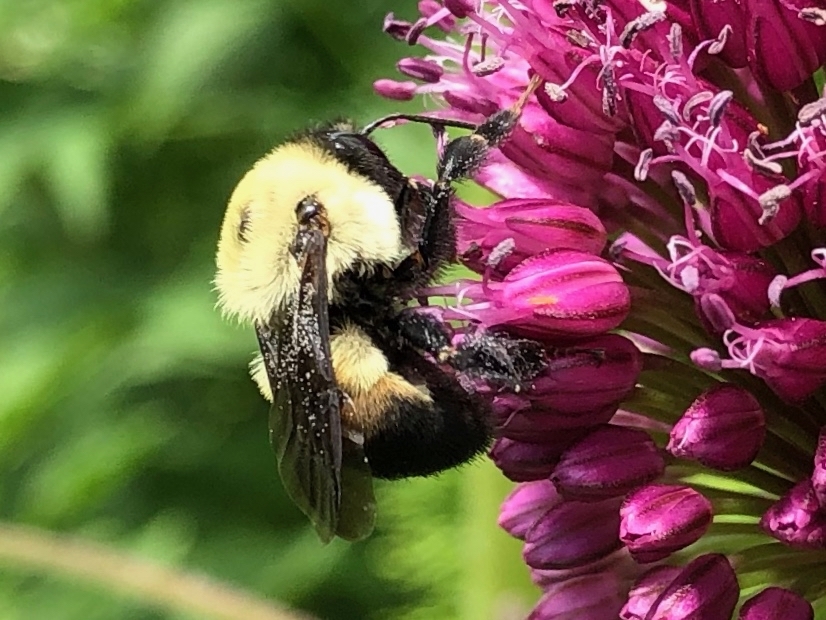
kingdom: Animalia
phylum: Arthropoda
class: Insecta
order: Hymenoptera
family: Apidae
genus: Bombus
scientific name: Bombus griseocollis
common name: Brown-belted bumble bee
